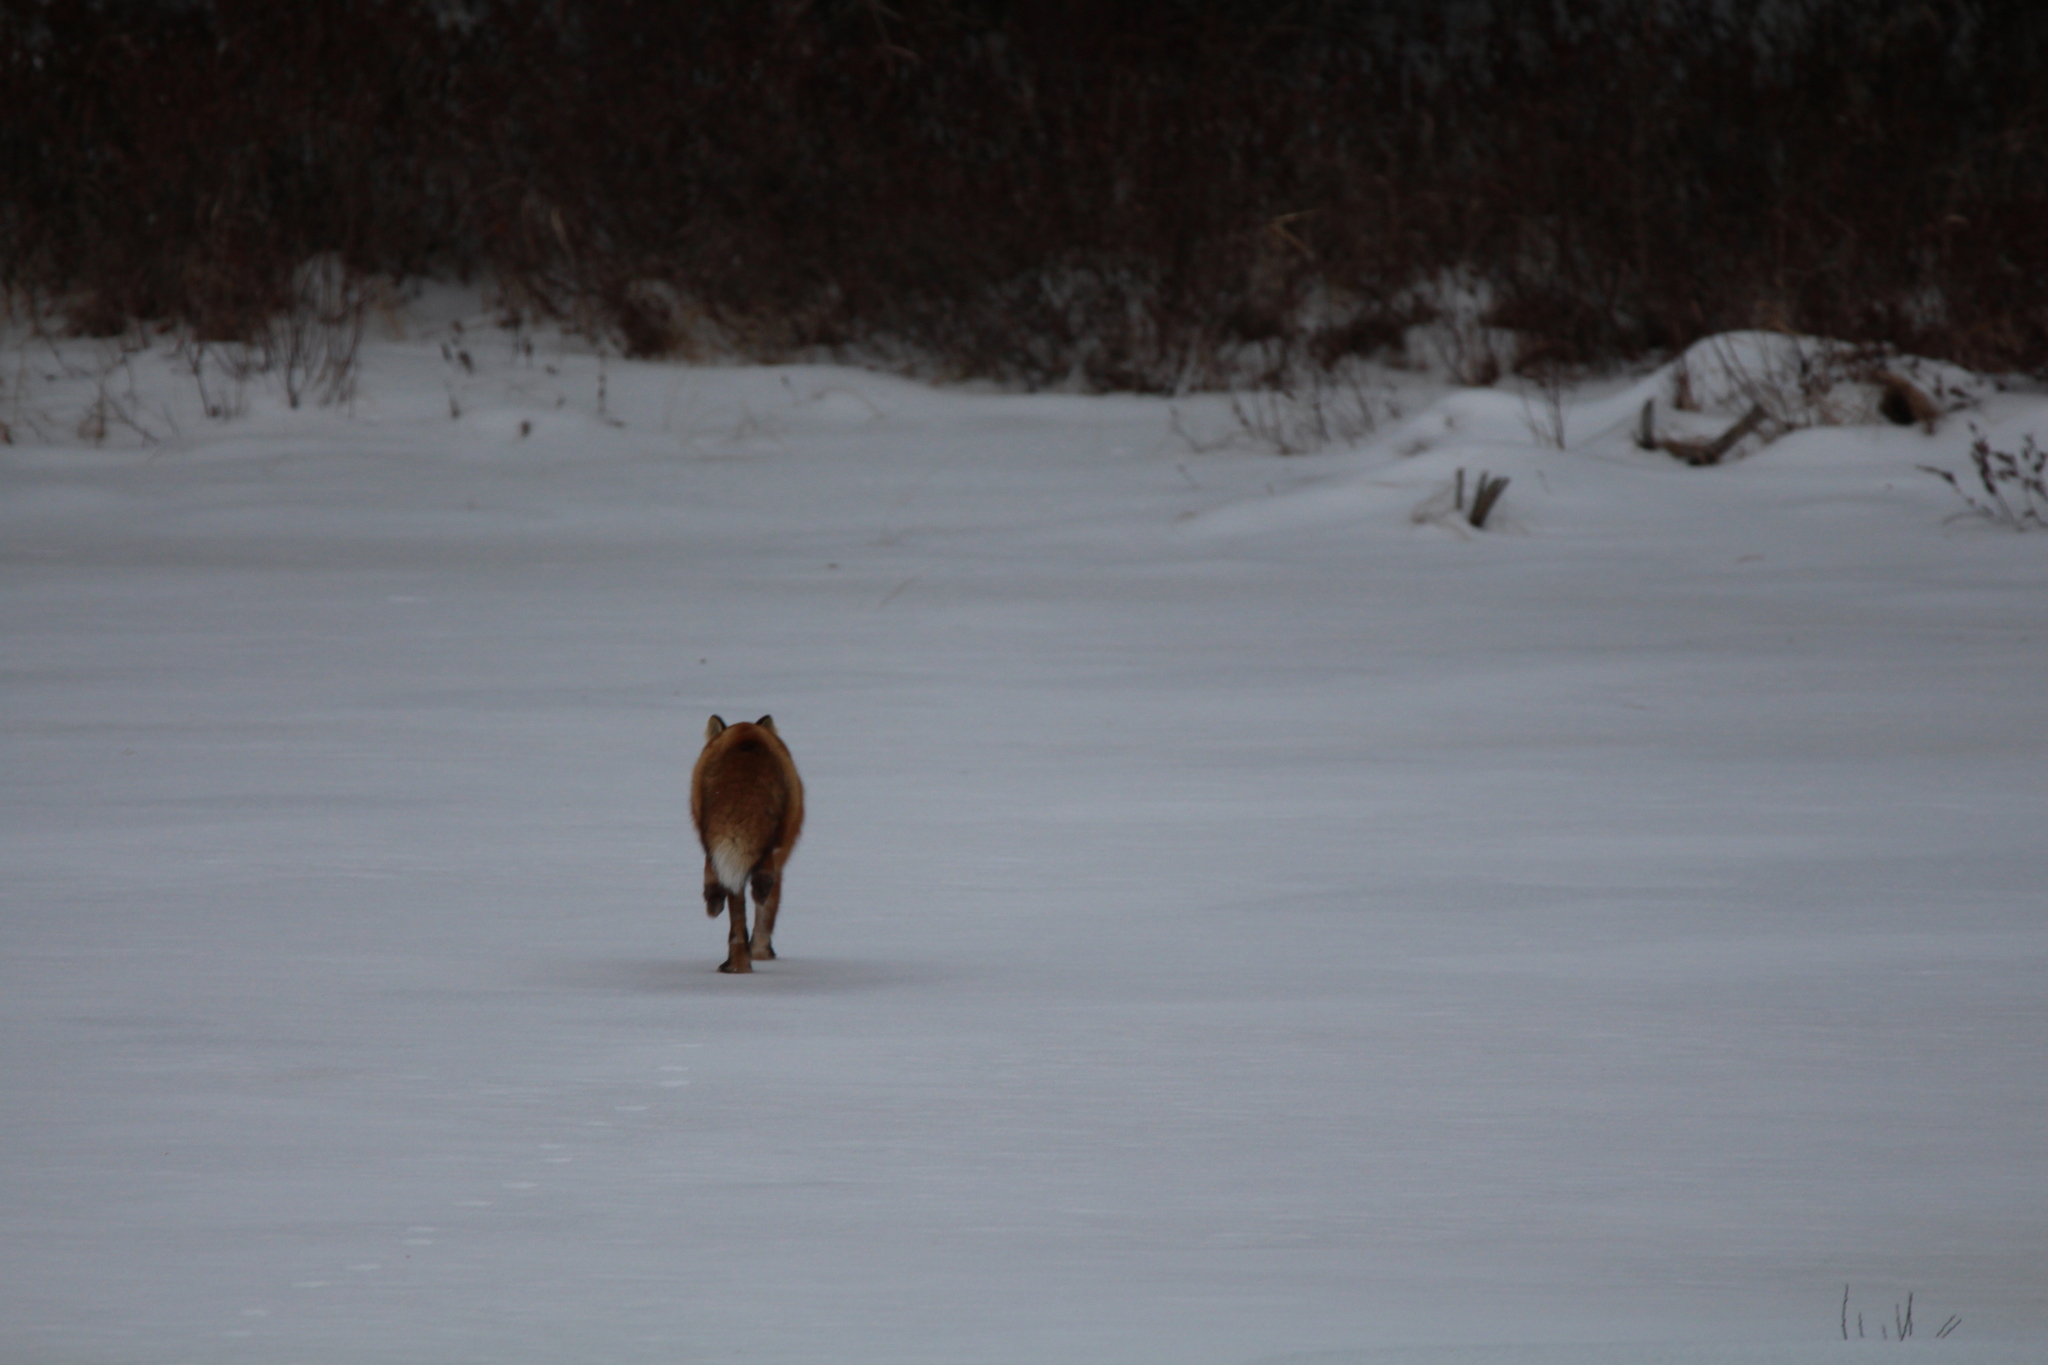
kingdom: Animalia
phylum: Chordata
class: Mammalia
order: Carnivora
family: Canidae
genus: Vulpes
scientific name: Vulpes vulpes
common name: Red fox
